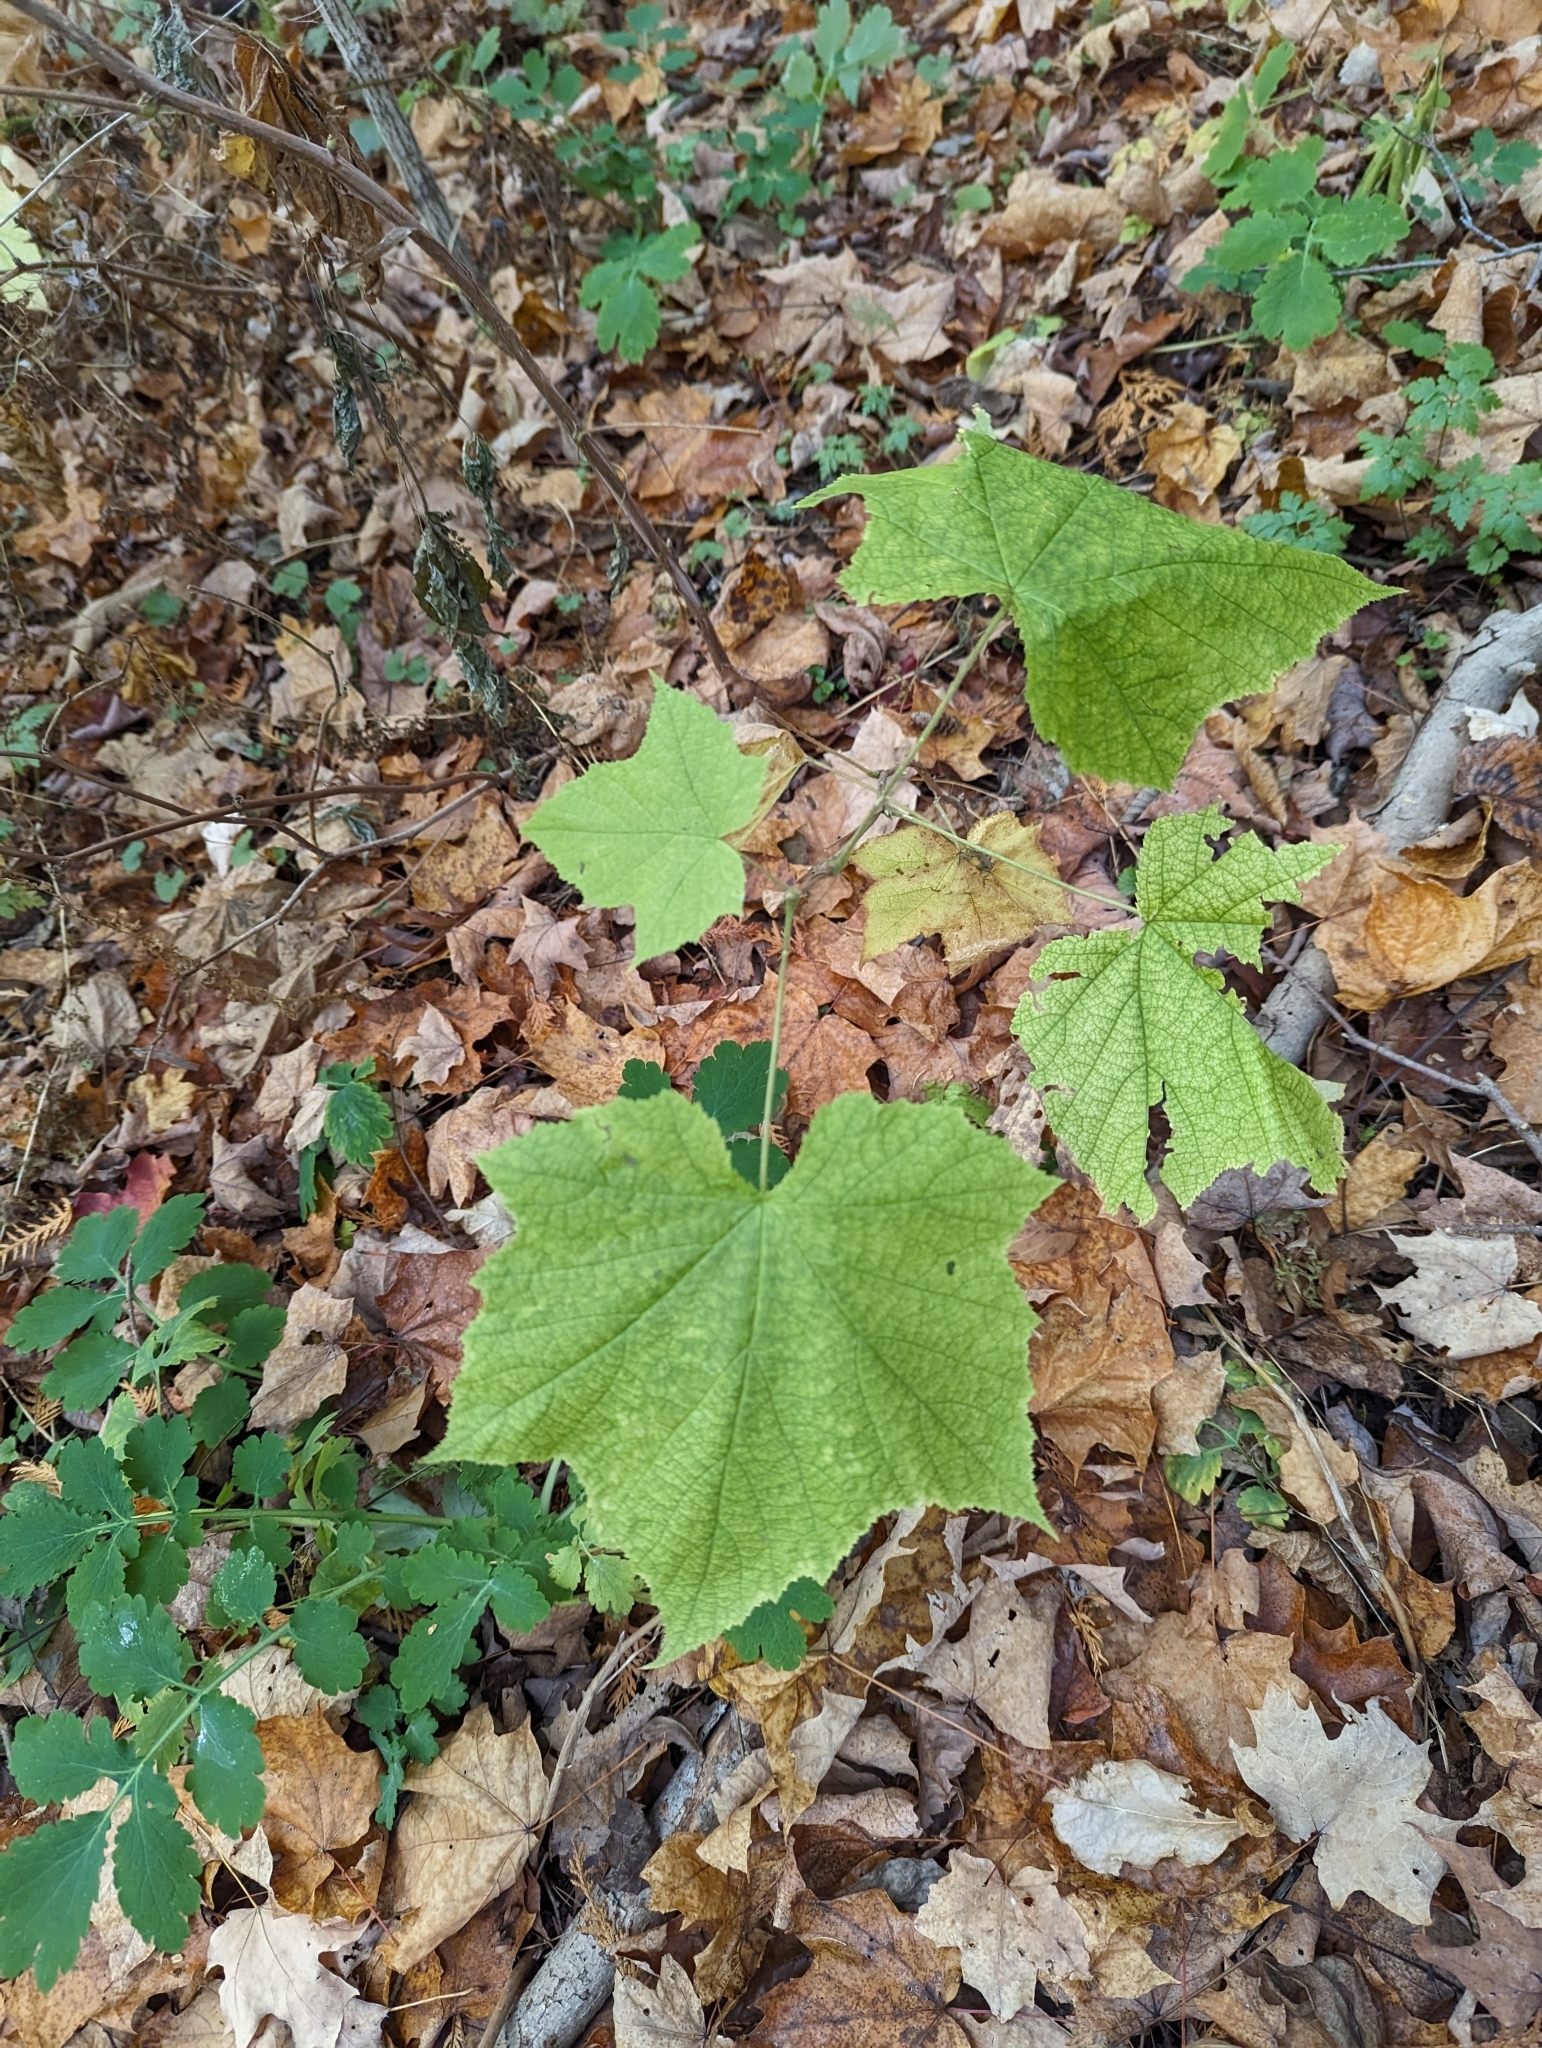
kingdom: Plantae
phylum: Tracheophyta
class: Magnoliopsida
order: Rosales
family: Rosaceae
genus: Rubus
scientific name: Rubus odoratus
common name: Purple-flowered raspberry
